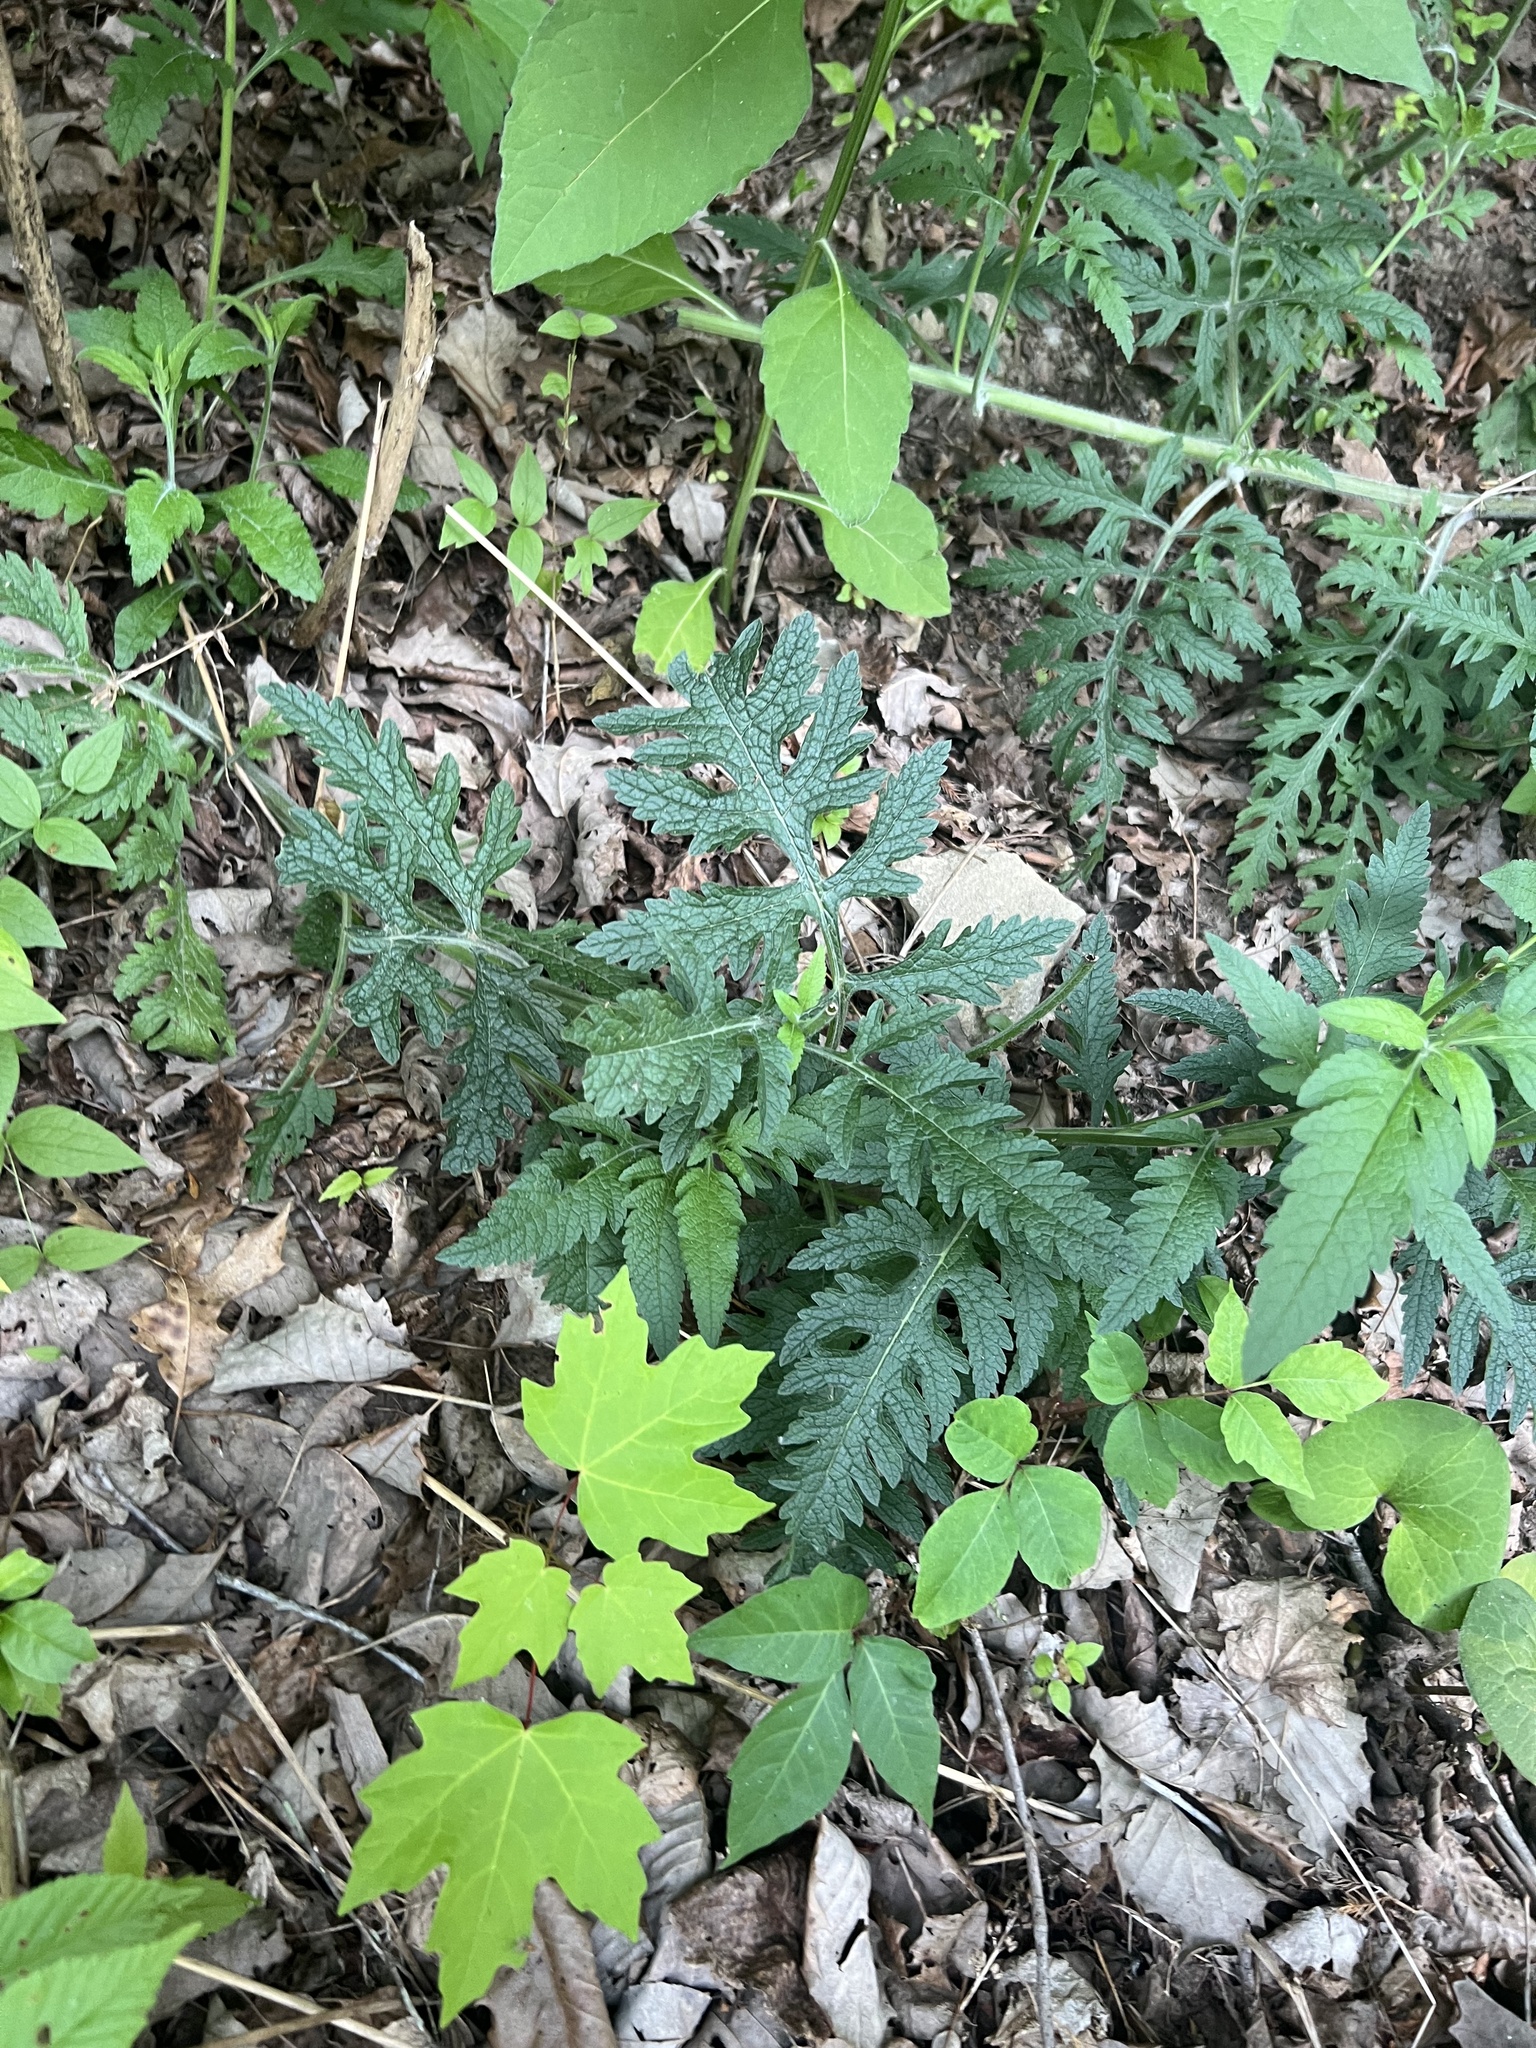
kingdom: Plantae
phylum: Tracheophyta
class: Magnoliopsida
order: Lamiales
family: Orobanchaceae
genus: Dasistoma
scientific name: Dasistoma macrophyllum
